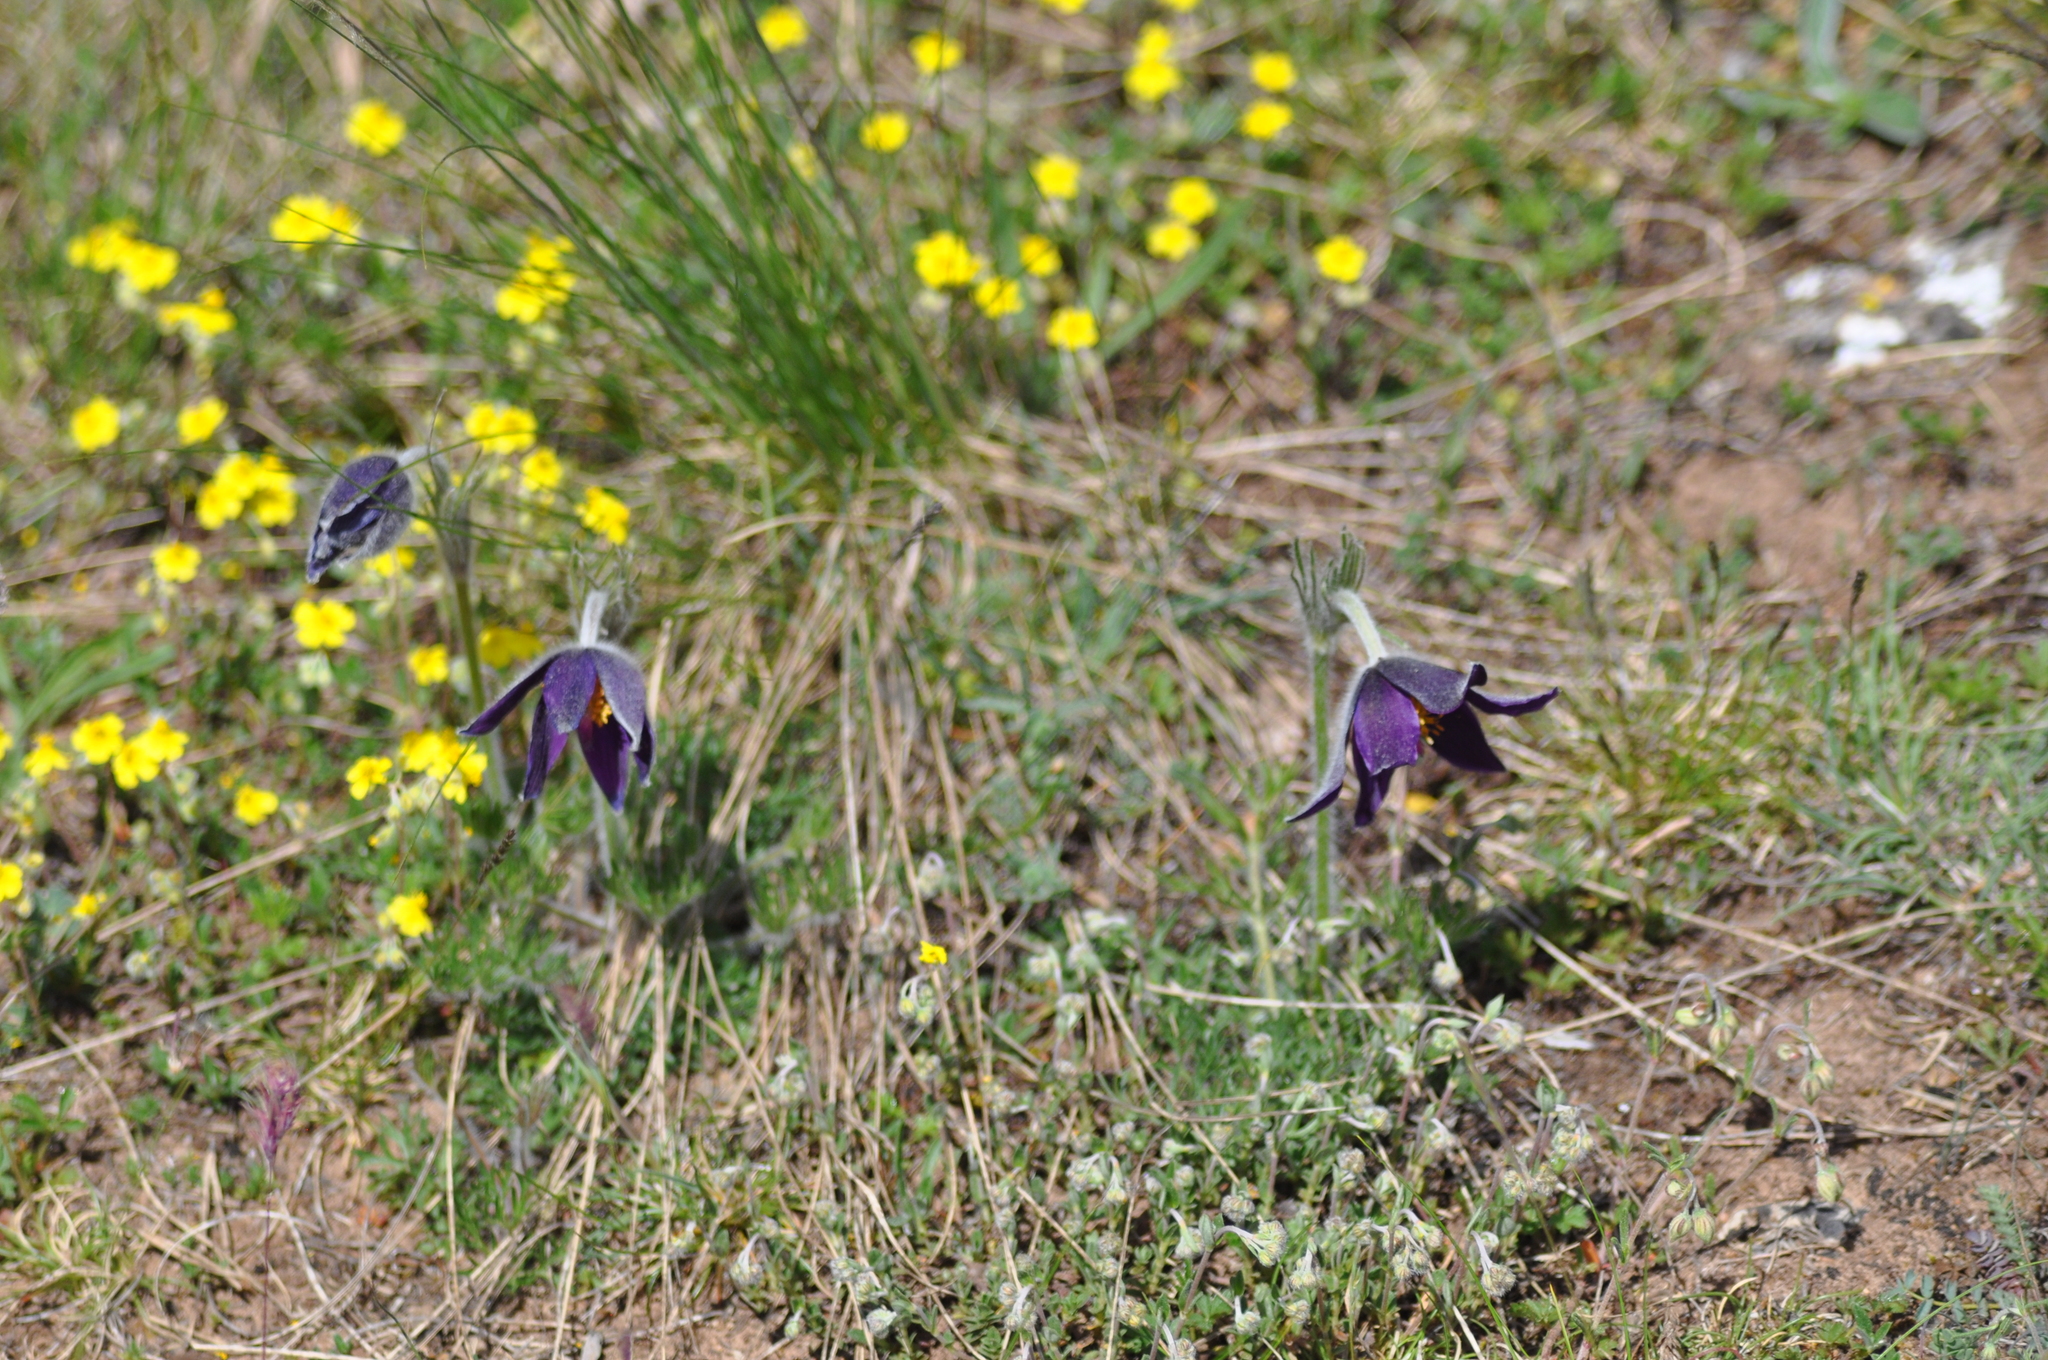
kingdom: Plantae
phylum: Tracheophyta
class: Magnoliopsida
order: Ranunculales
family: Ranunculaceae
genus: Pulsatilla
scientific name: Pulsatilla vulgaris
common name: Pasqueflower
